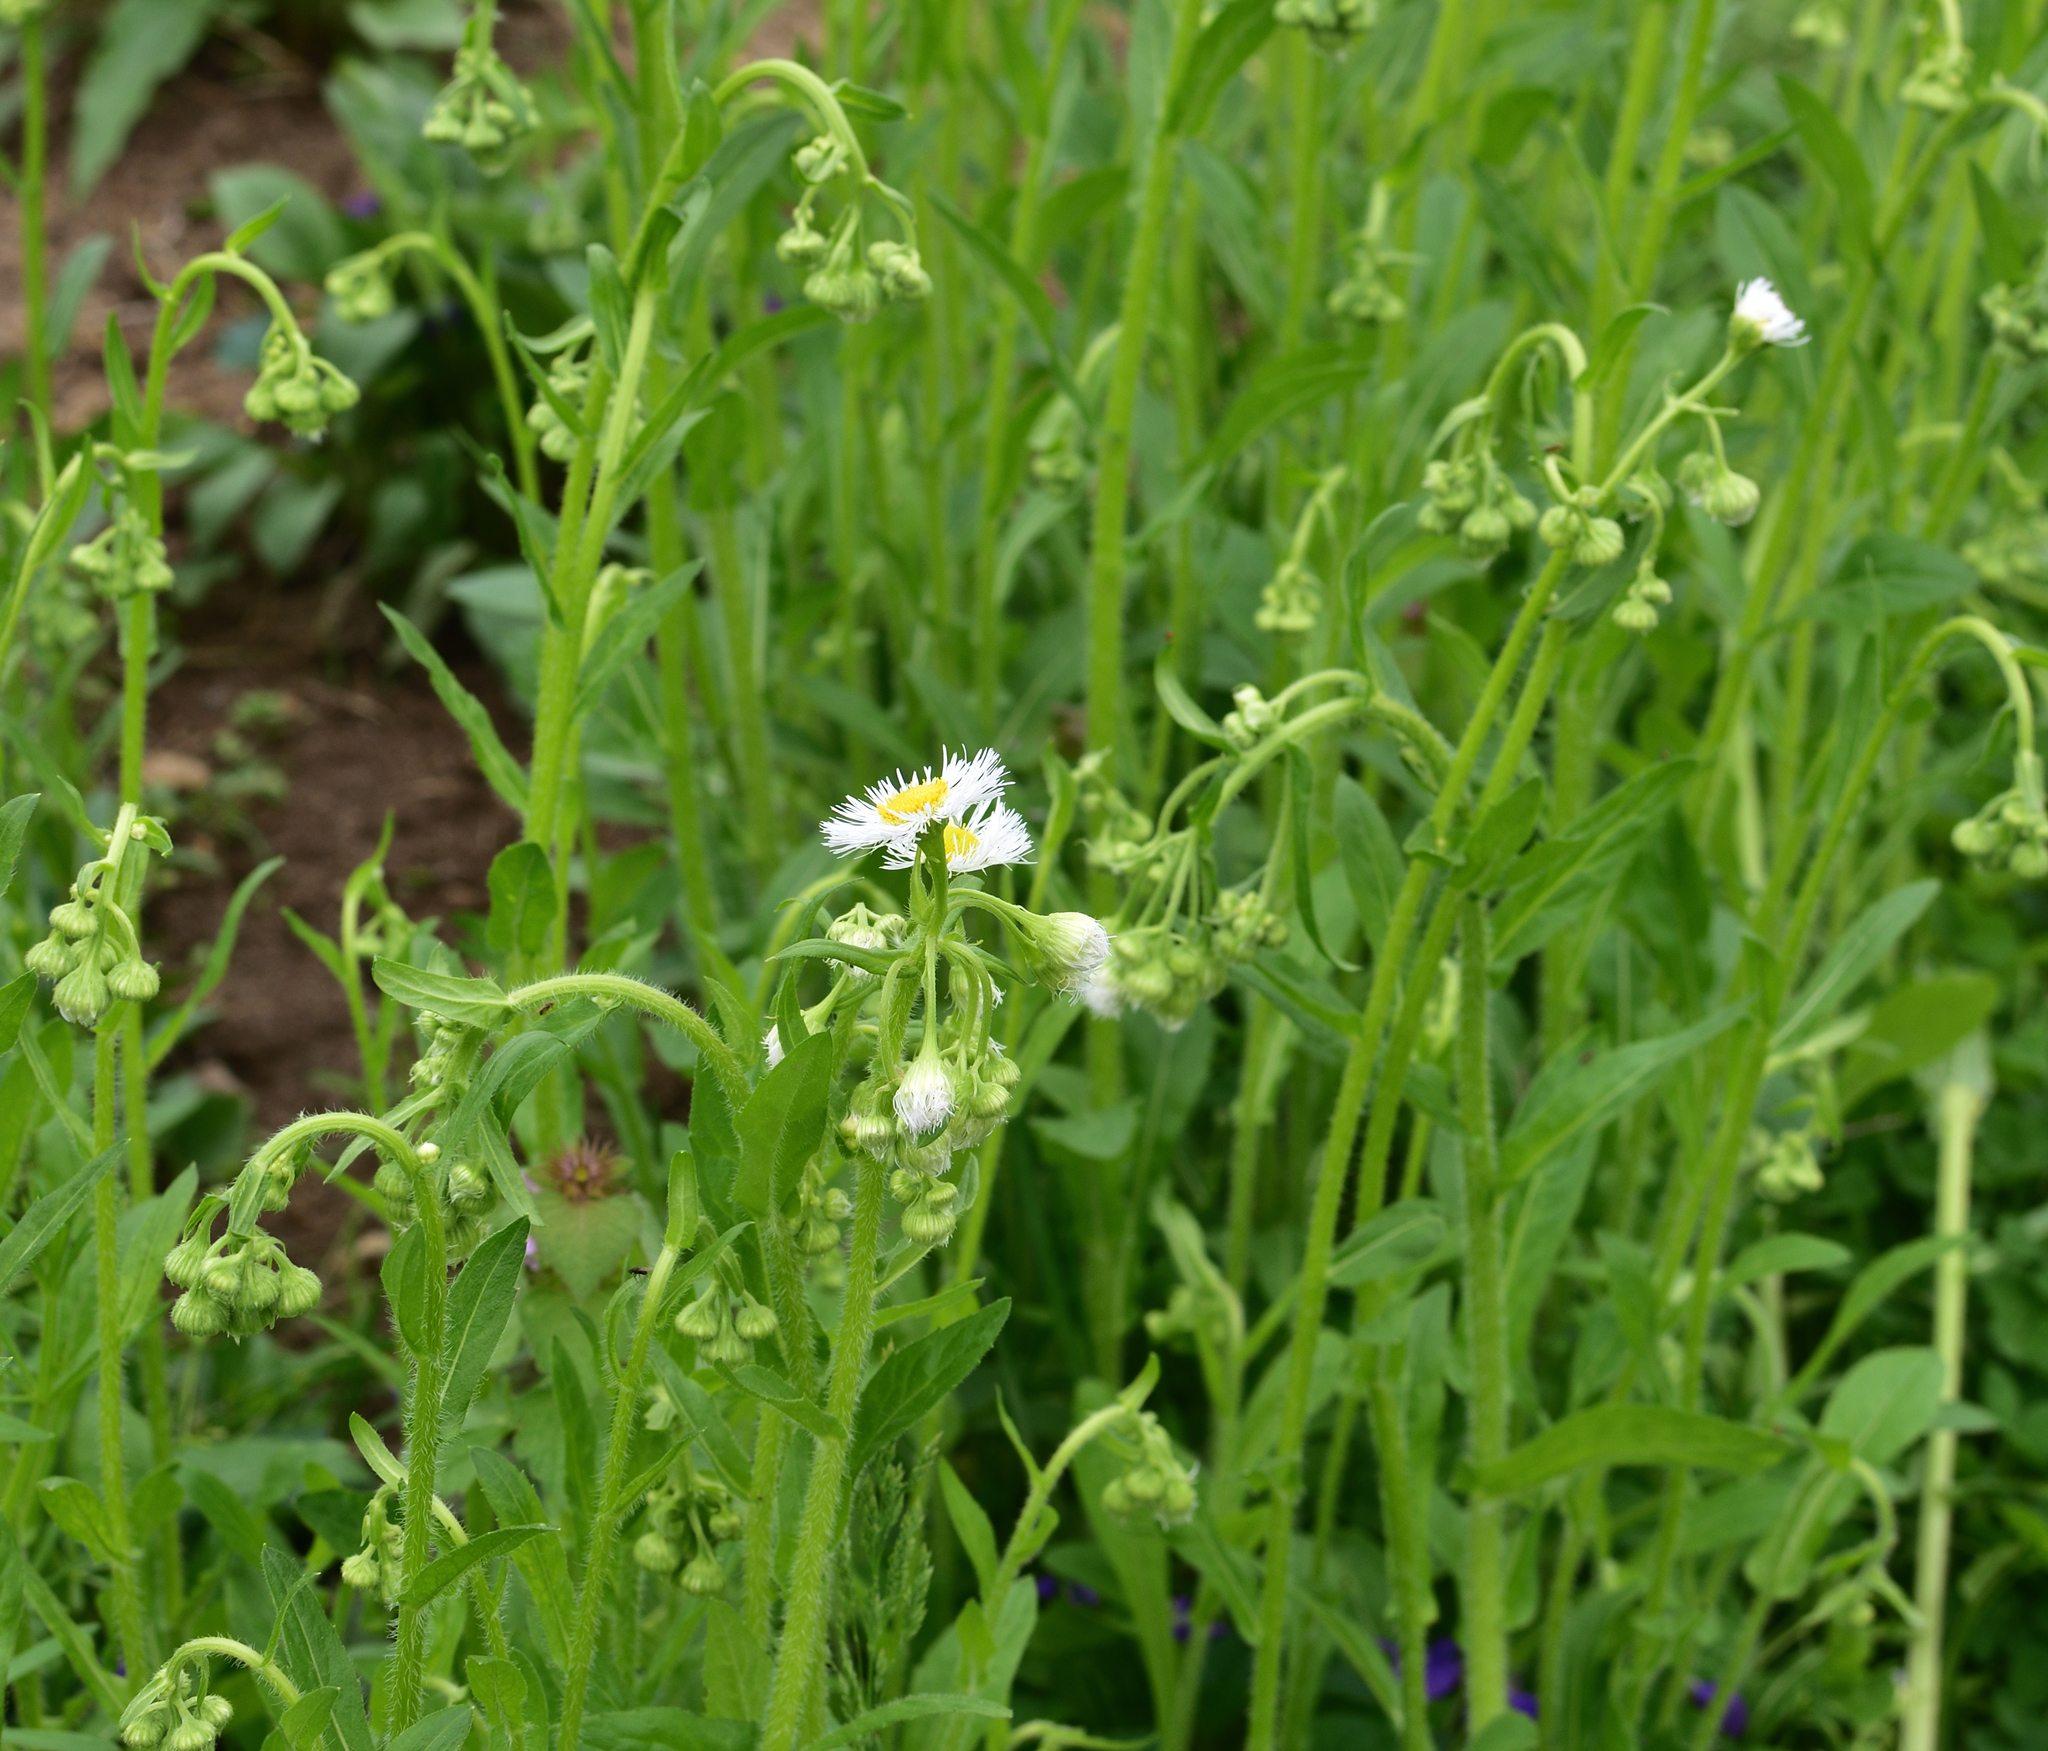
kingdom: Plantae
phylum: Tracheophyta
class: Magnoliopsida
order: Asterales
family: Asteraceae
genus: Erigeron
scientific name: Erigeron annuus
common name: Tall fleabane
